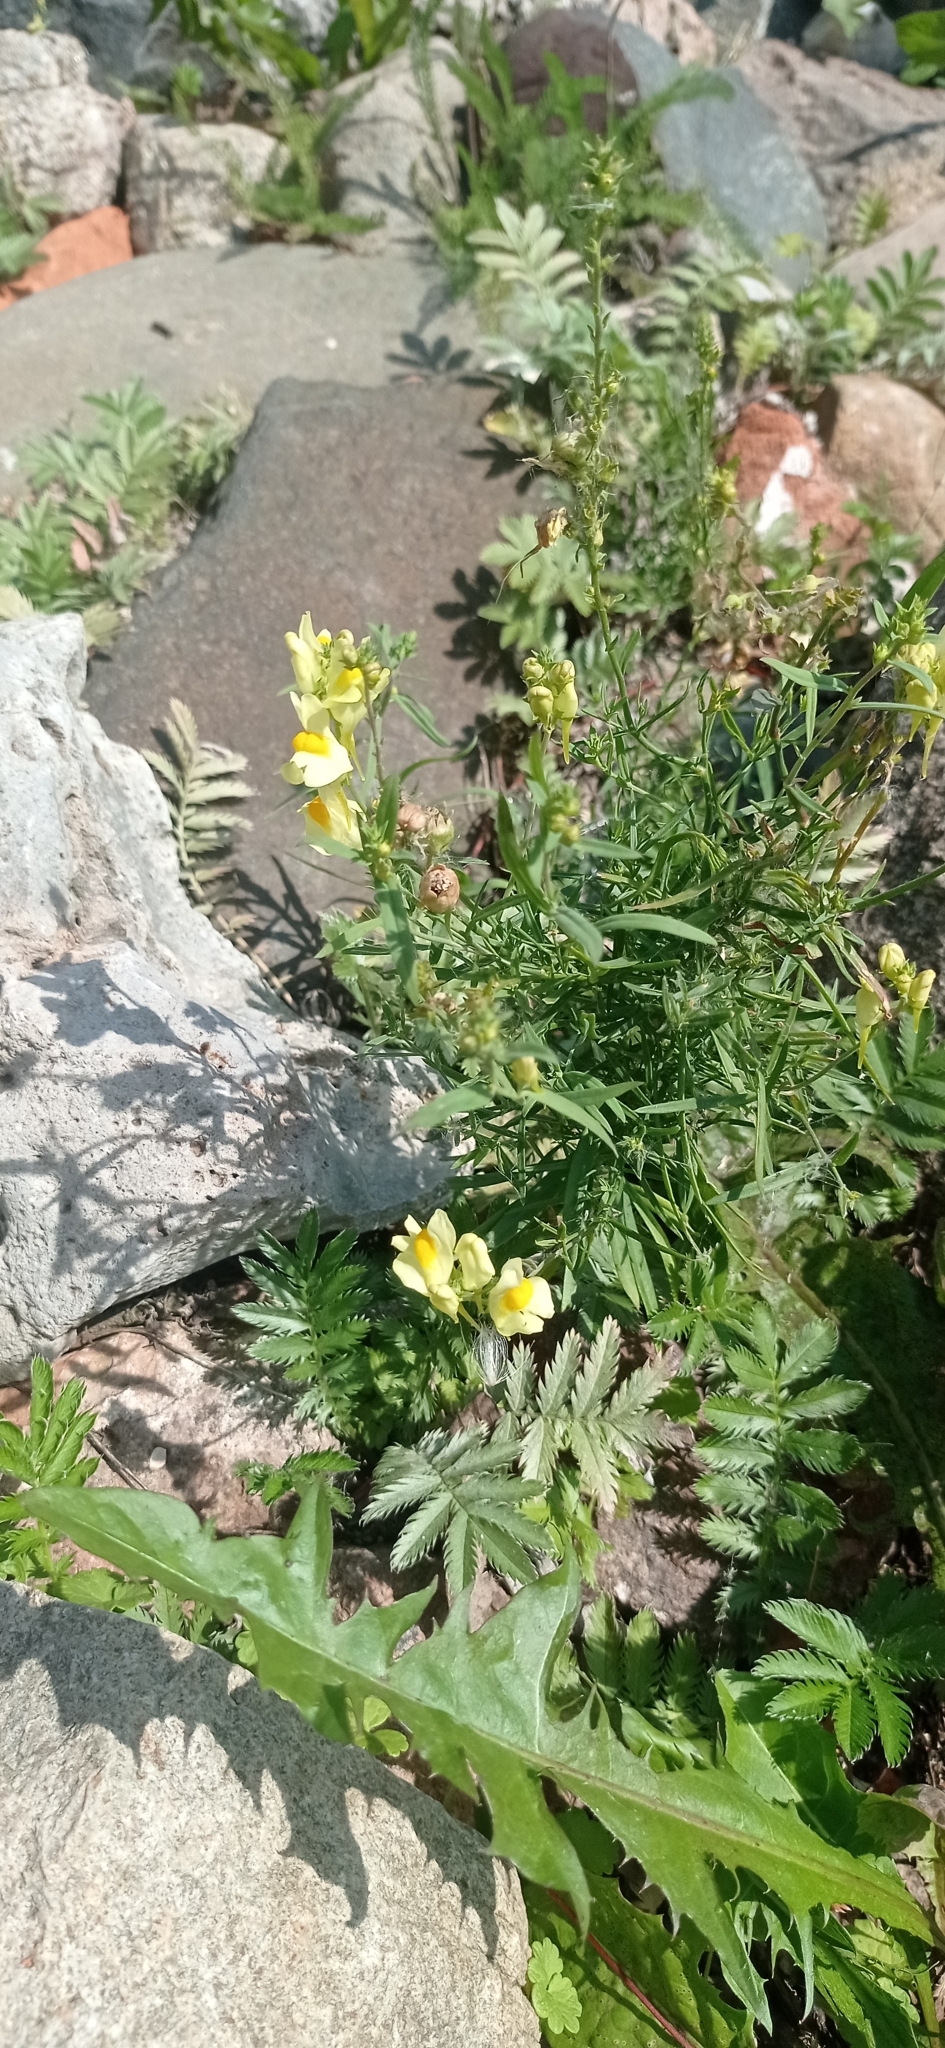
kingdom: Plantae
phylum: Tracheophyta
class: Magnoliopsida
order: Lamiales
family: Plantaginaceae
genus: Linaria
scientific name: Linaria vulgaris
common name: Butter and eggs
